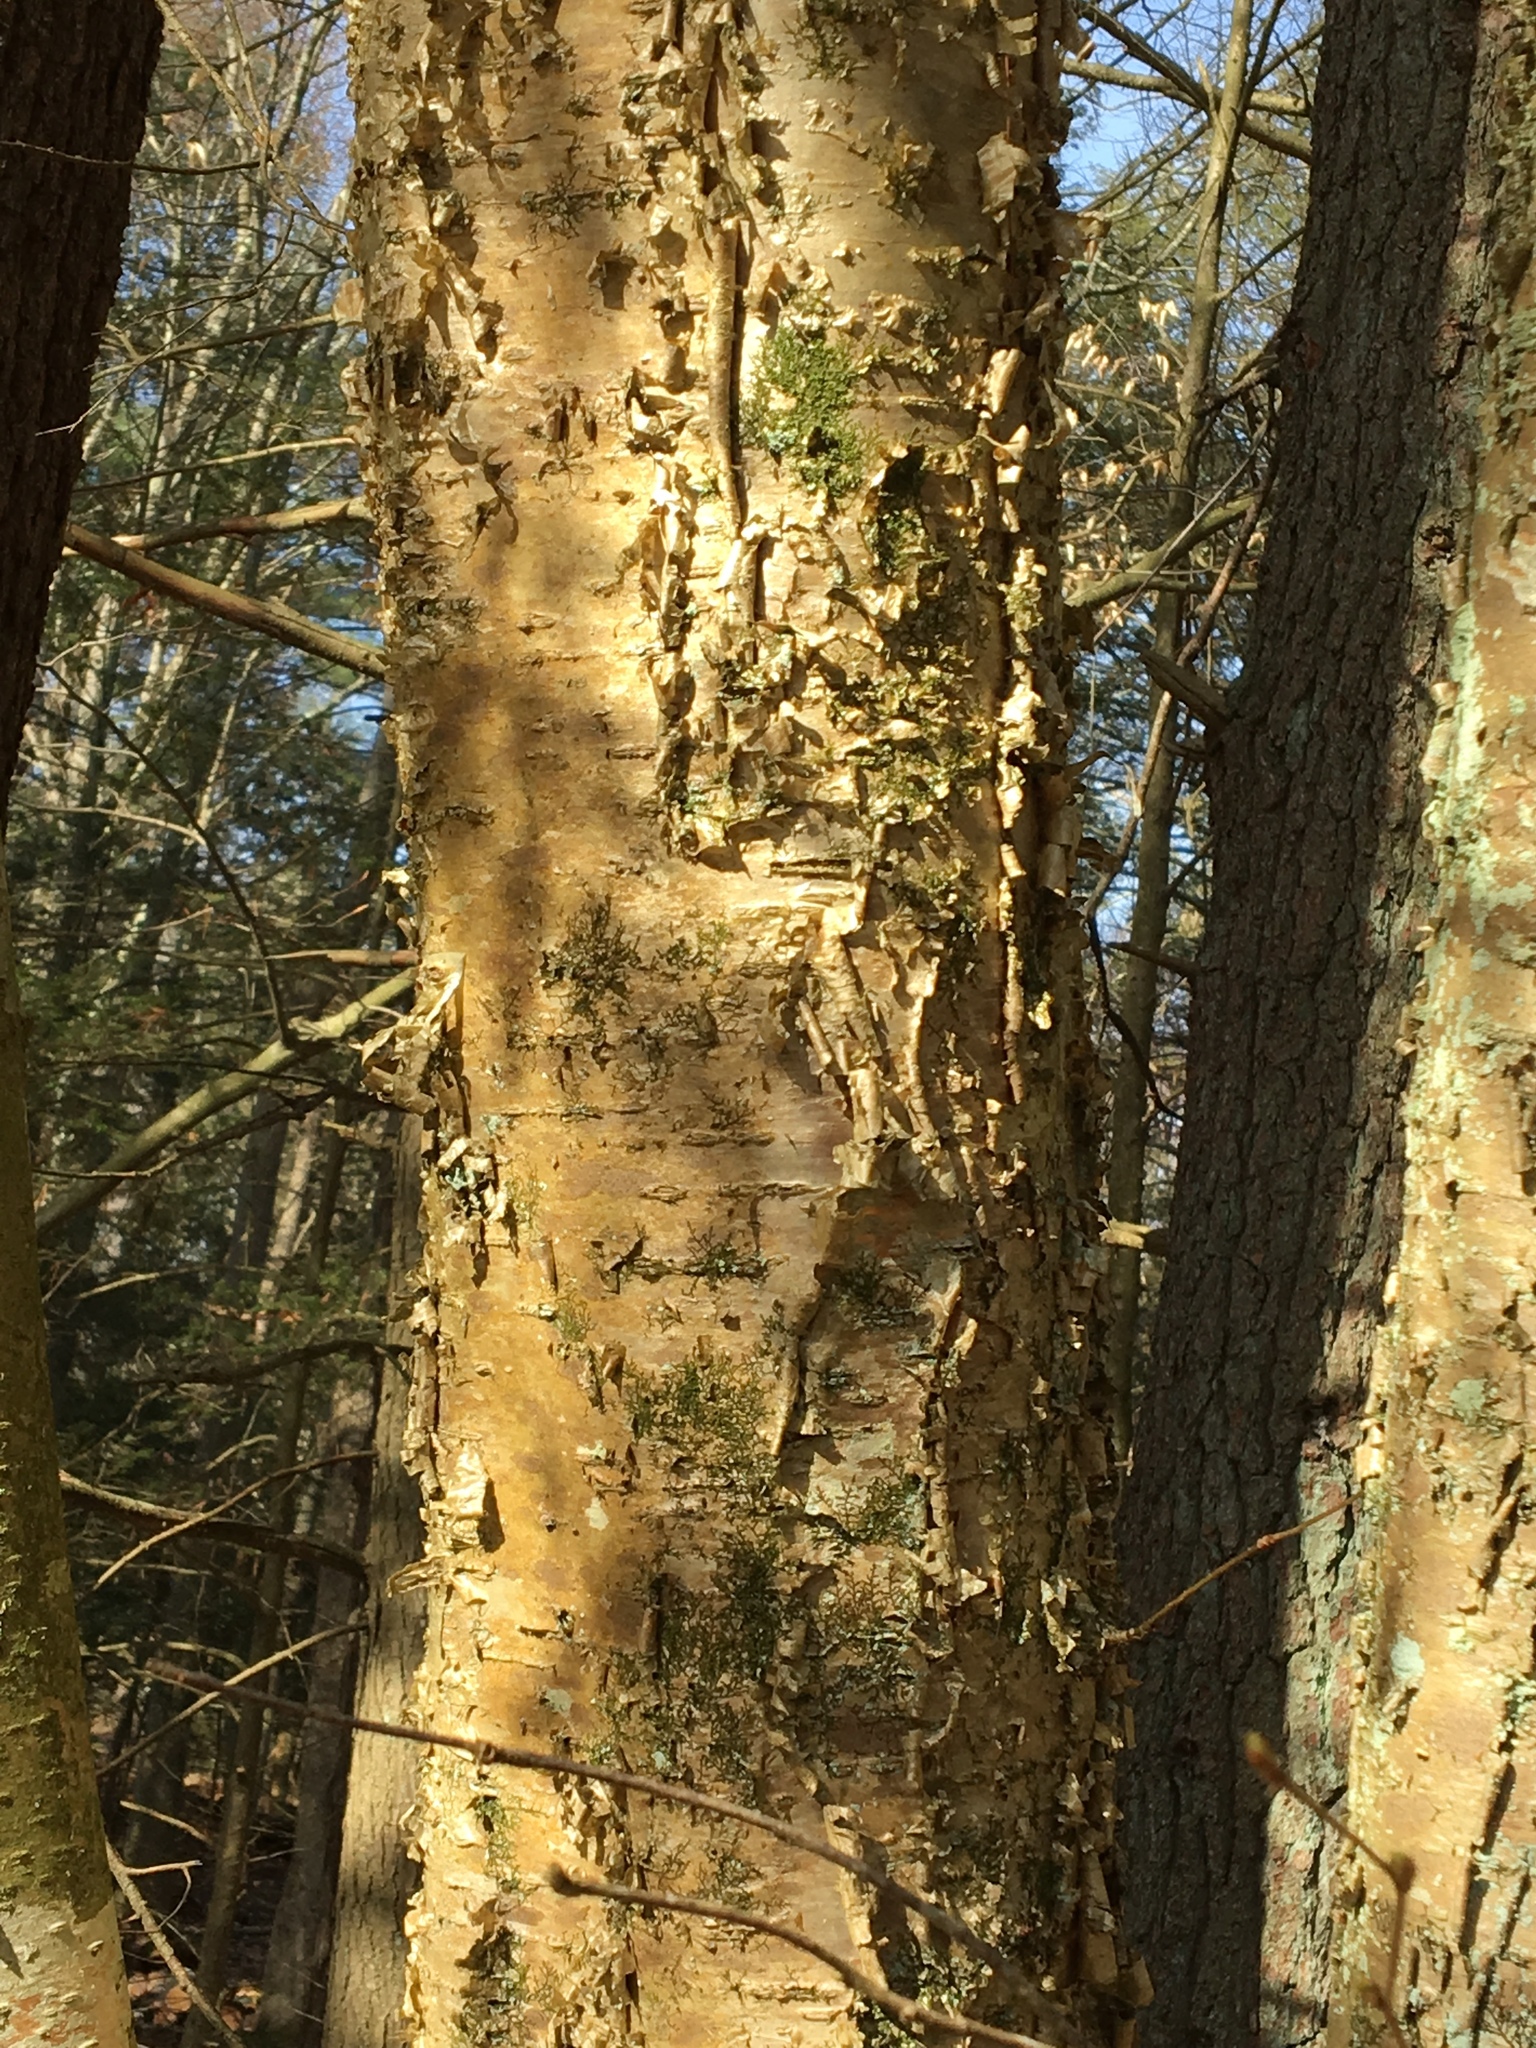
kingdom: Plantae
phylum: Tracheophyta
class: Magnoliopsida
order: Fagales
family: Betulaceae
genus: Betula
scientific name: Betula alleghaniensis
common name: Yellow birch
